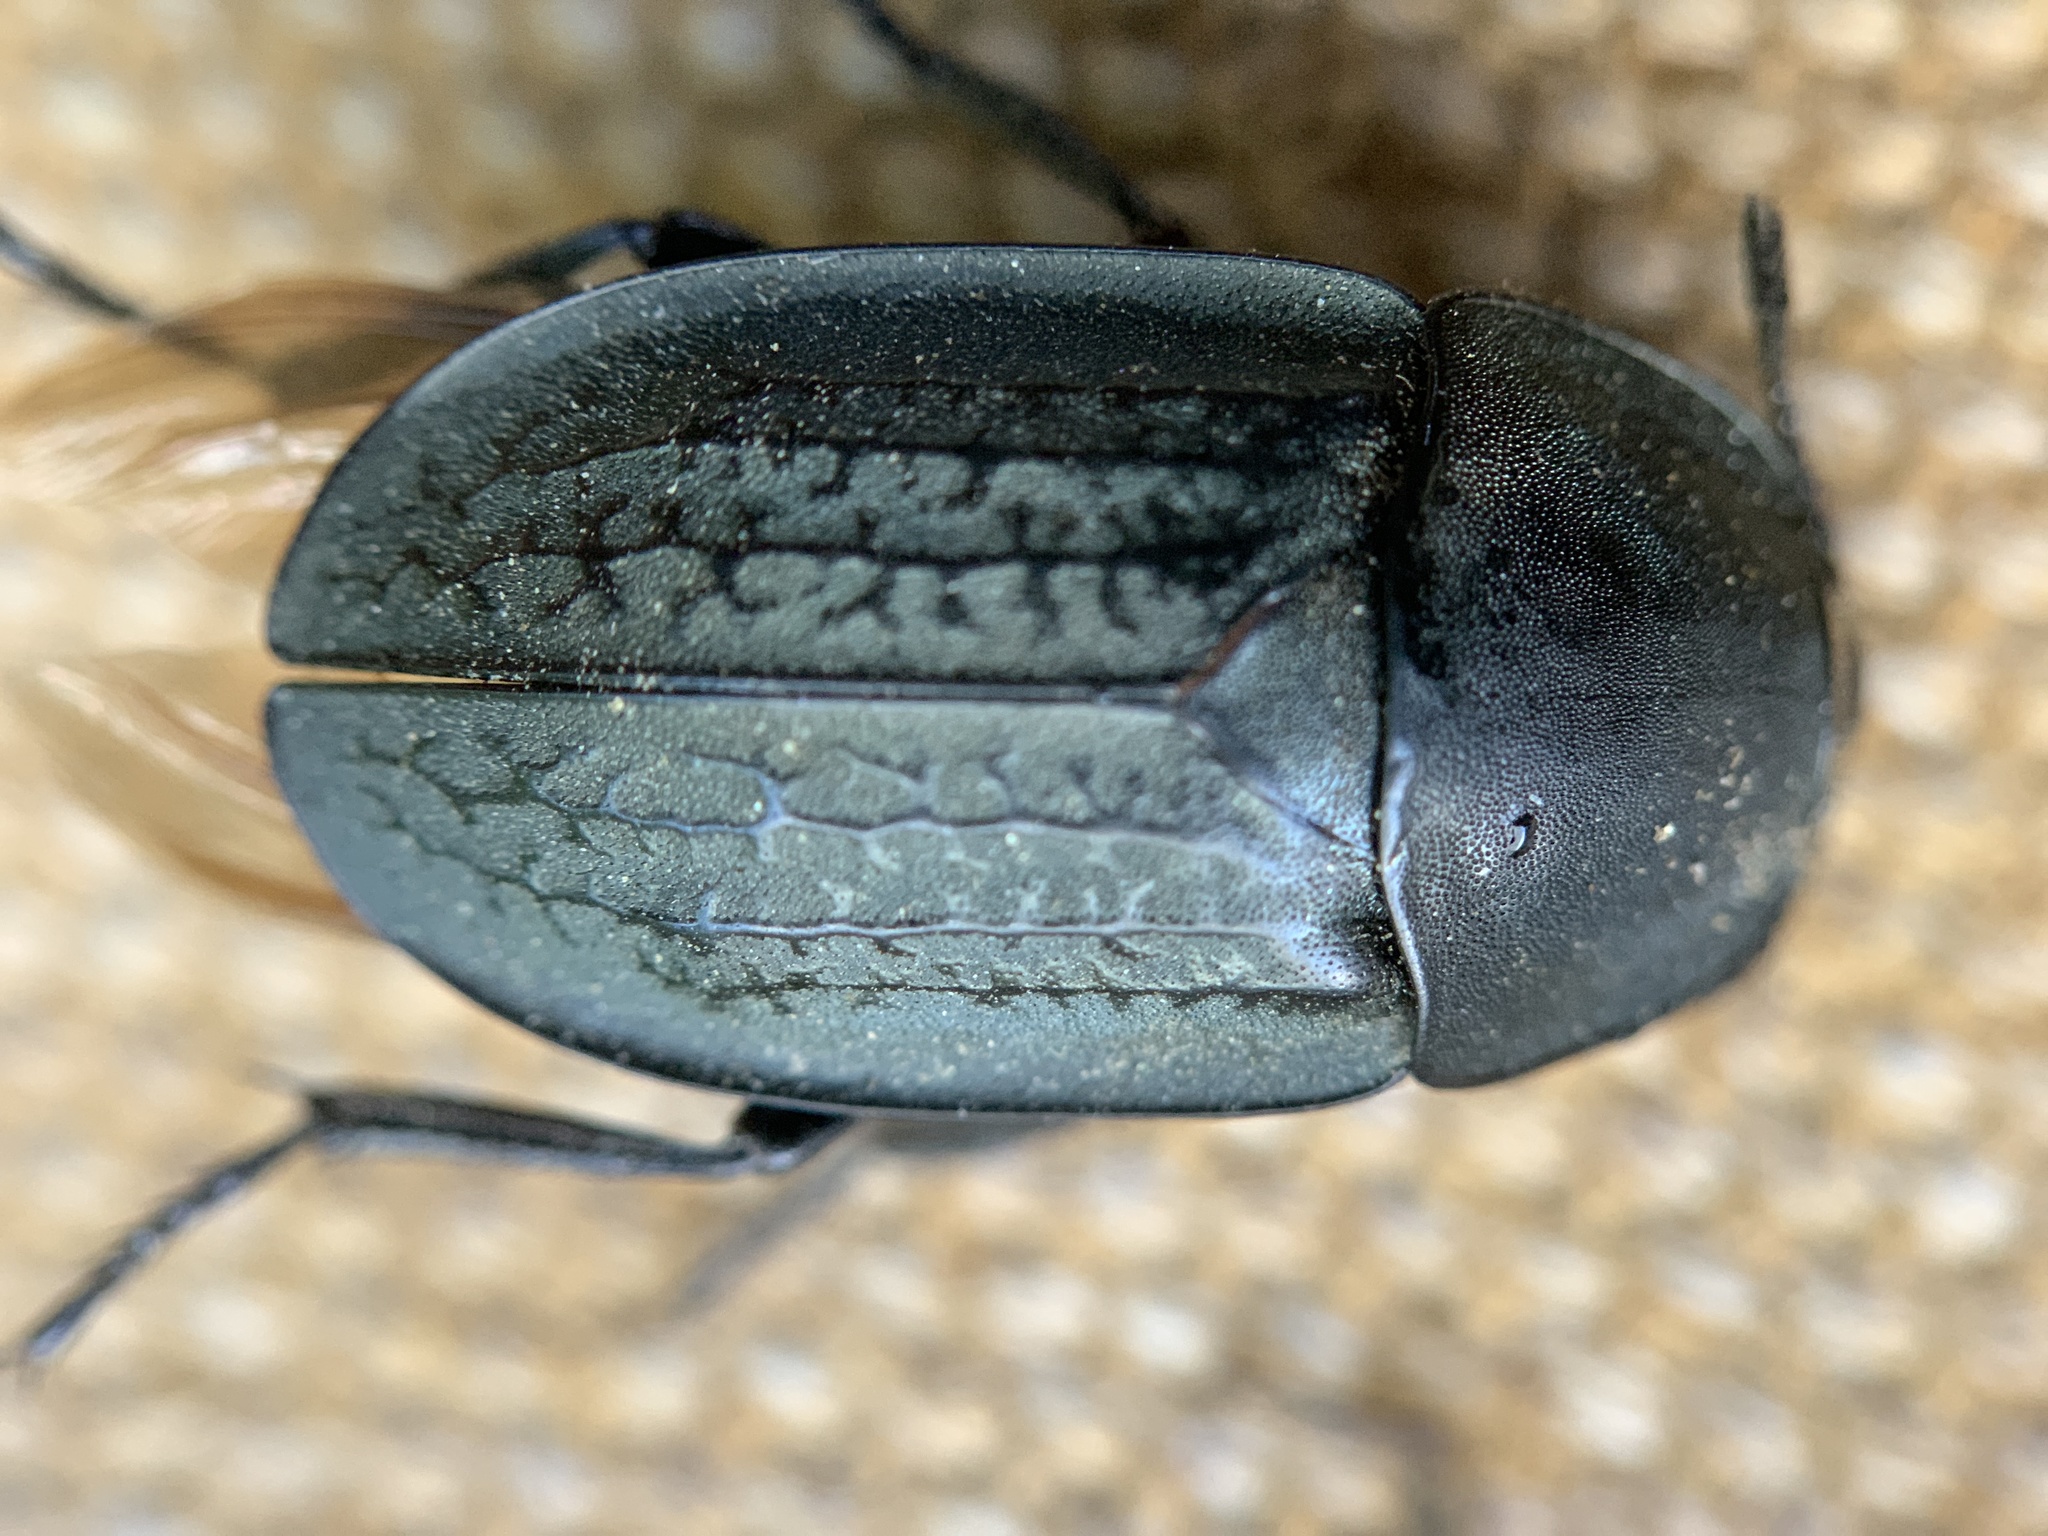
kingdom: Animalia
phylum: Arthropoda
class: Insecta
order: Coleoptera
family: Staphylinidae
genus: Heterosilpha
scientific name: Heterosilpha ramosa
